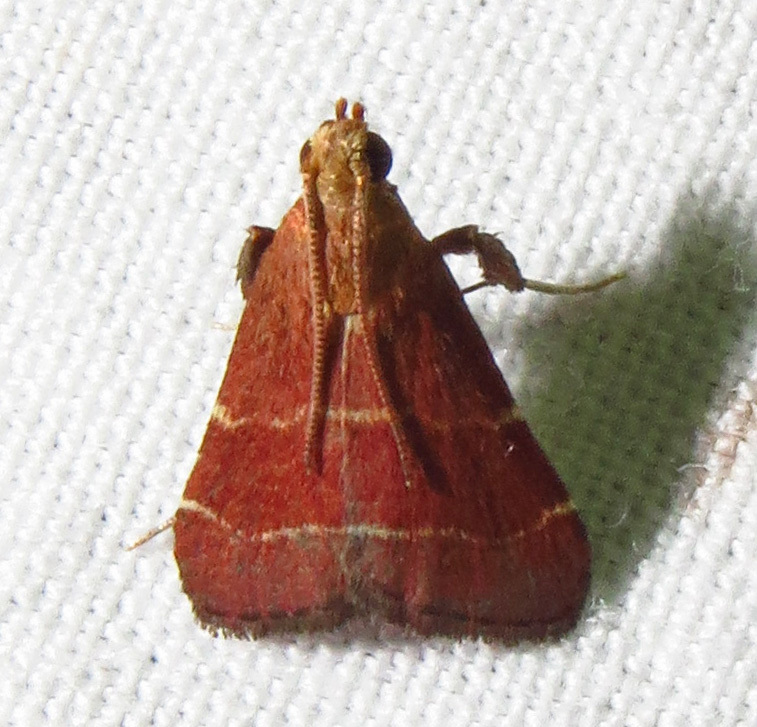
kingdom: Animalia
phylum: Arthropoda
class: Insecta
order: Lepidoptera
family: Pyralidae
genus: Arta
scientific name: Arta statalis
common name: Posturing arta moth
